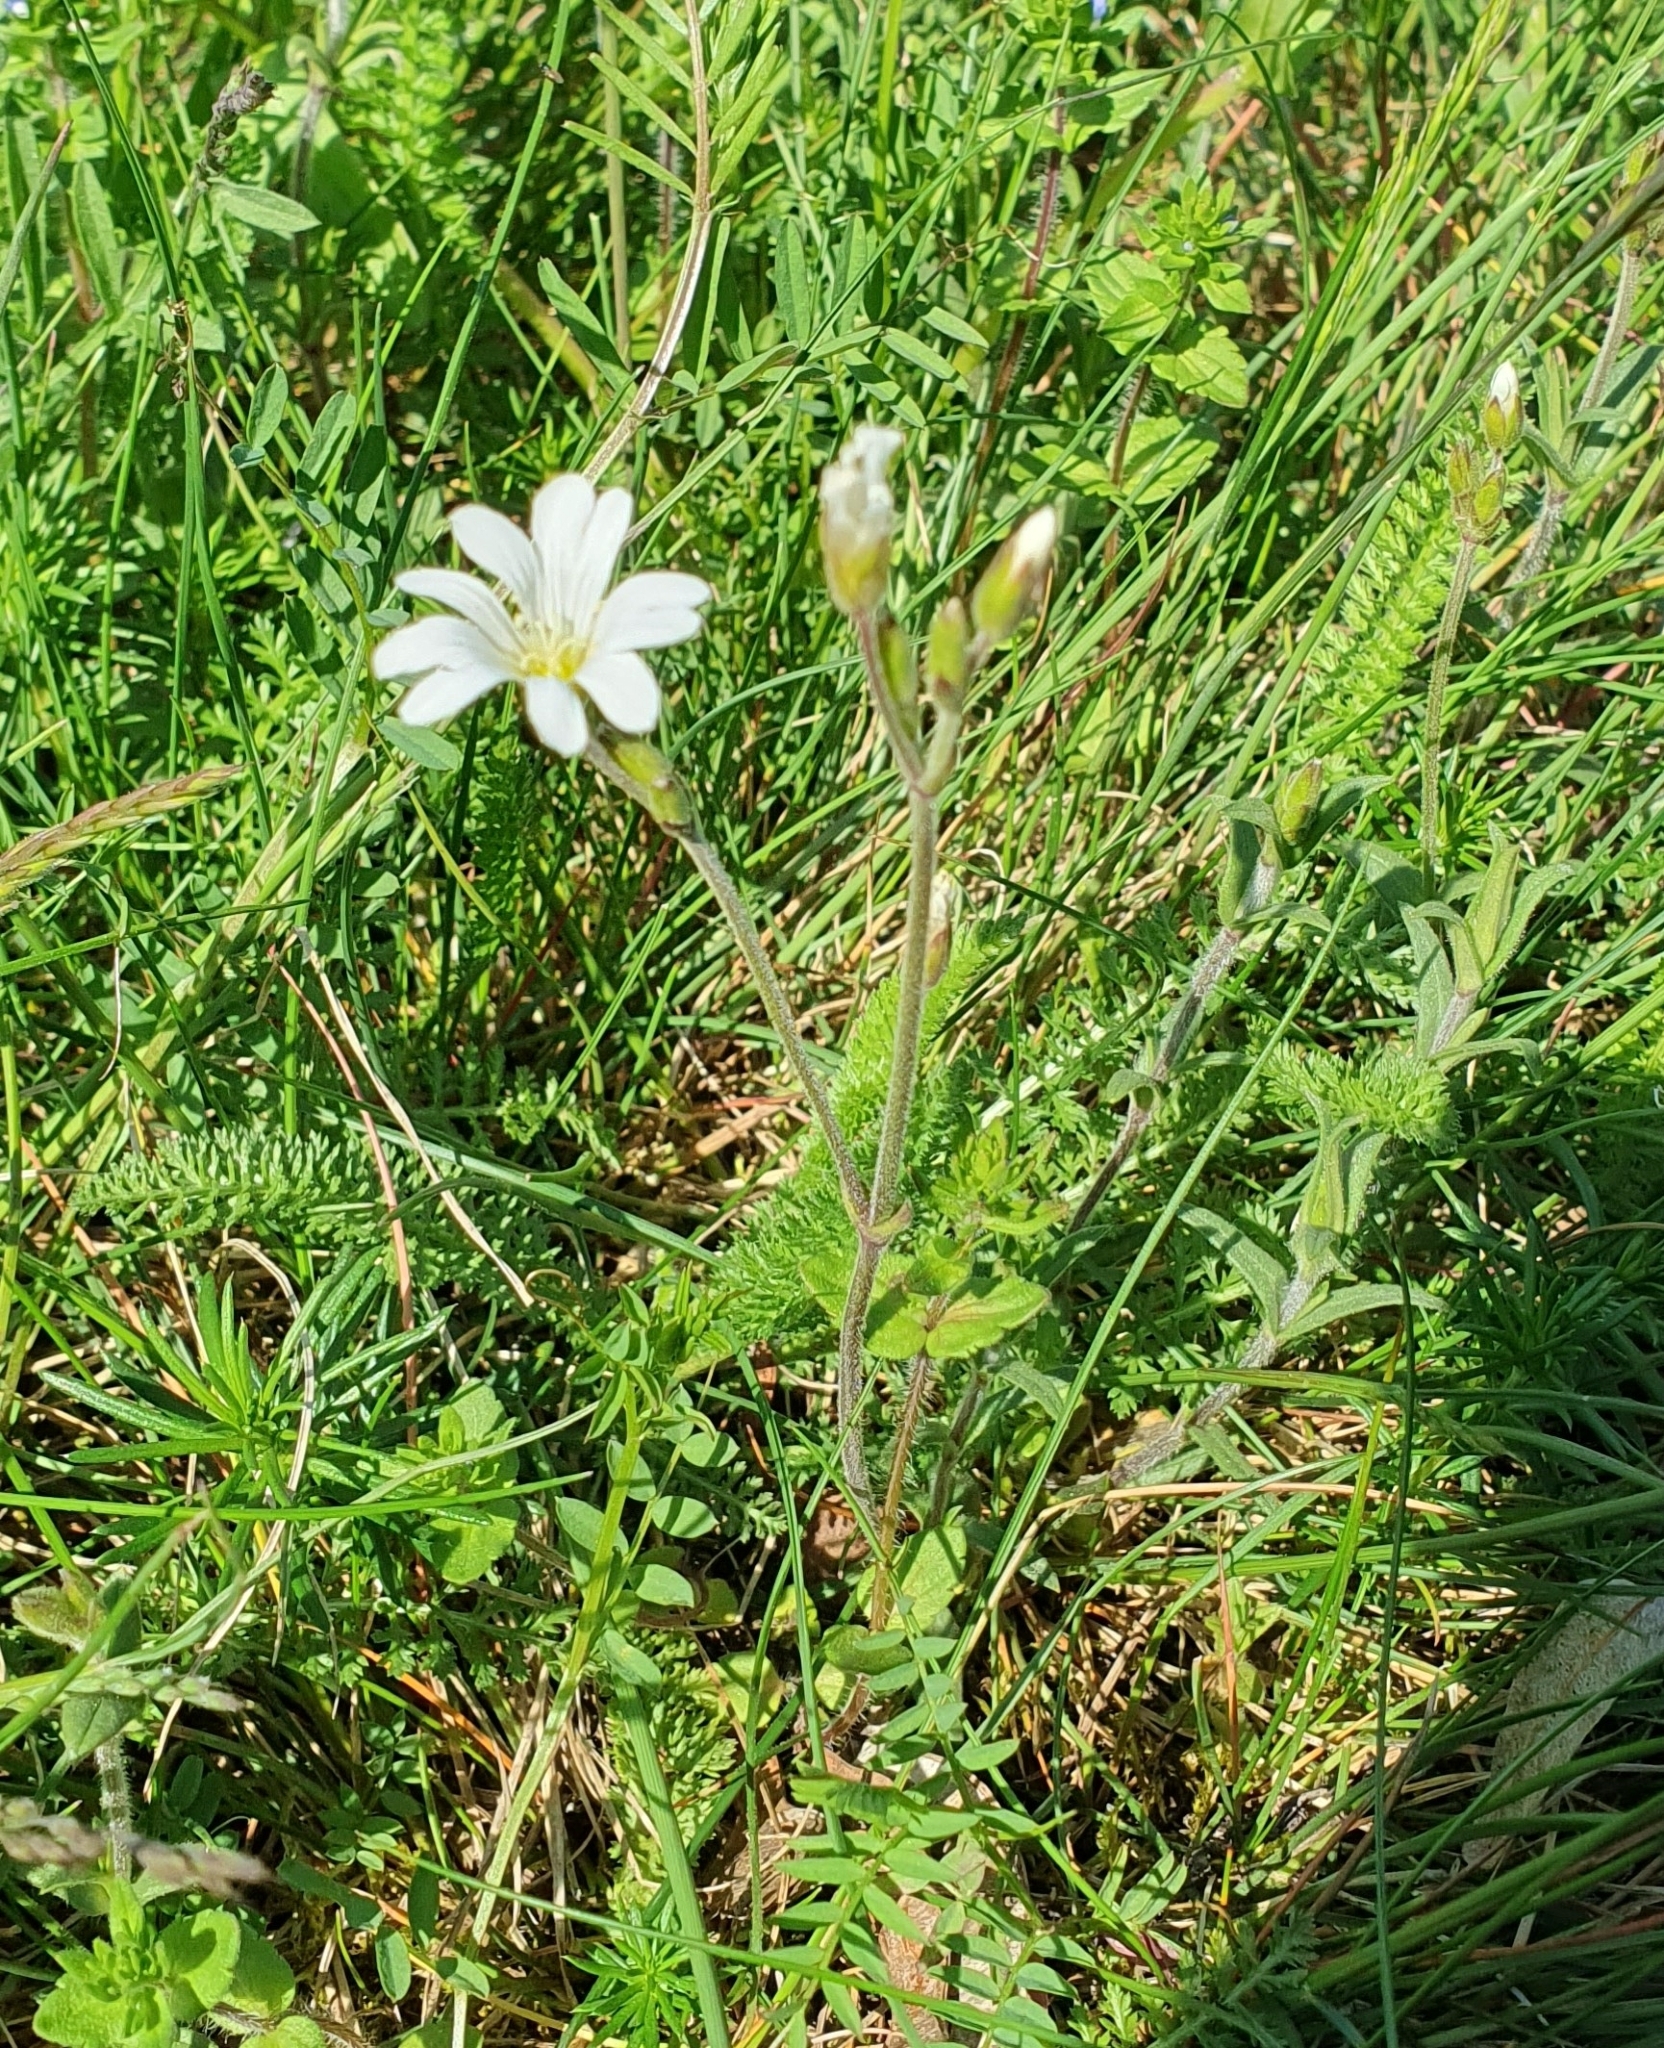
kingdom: Plantae
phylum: Tracheophyta
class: Magnoliopsida
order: Caryophyllales
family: Caryophyllaceae
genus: Cerastium
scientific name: Cerastium arvense
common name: Field mouse-ear
